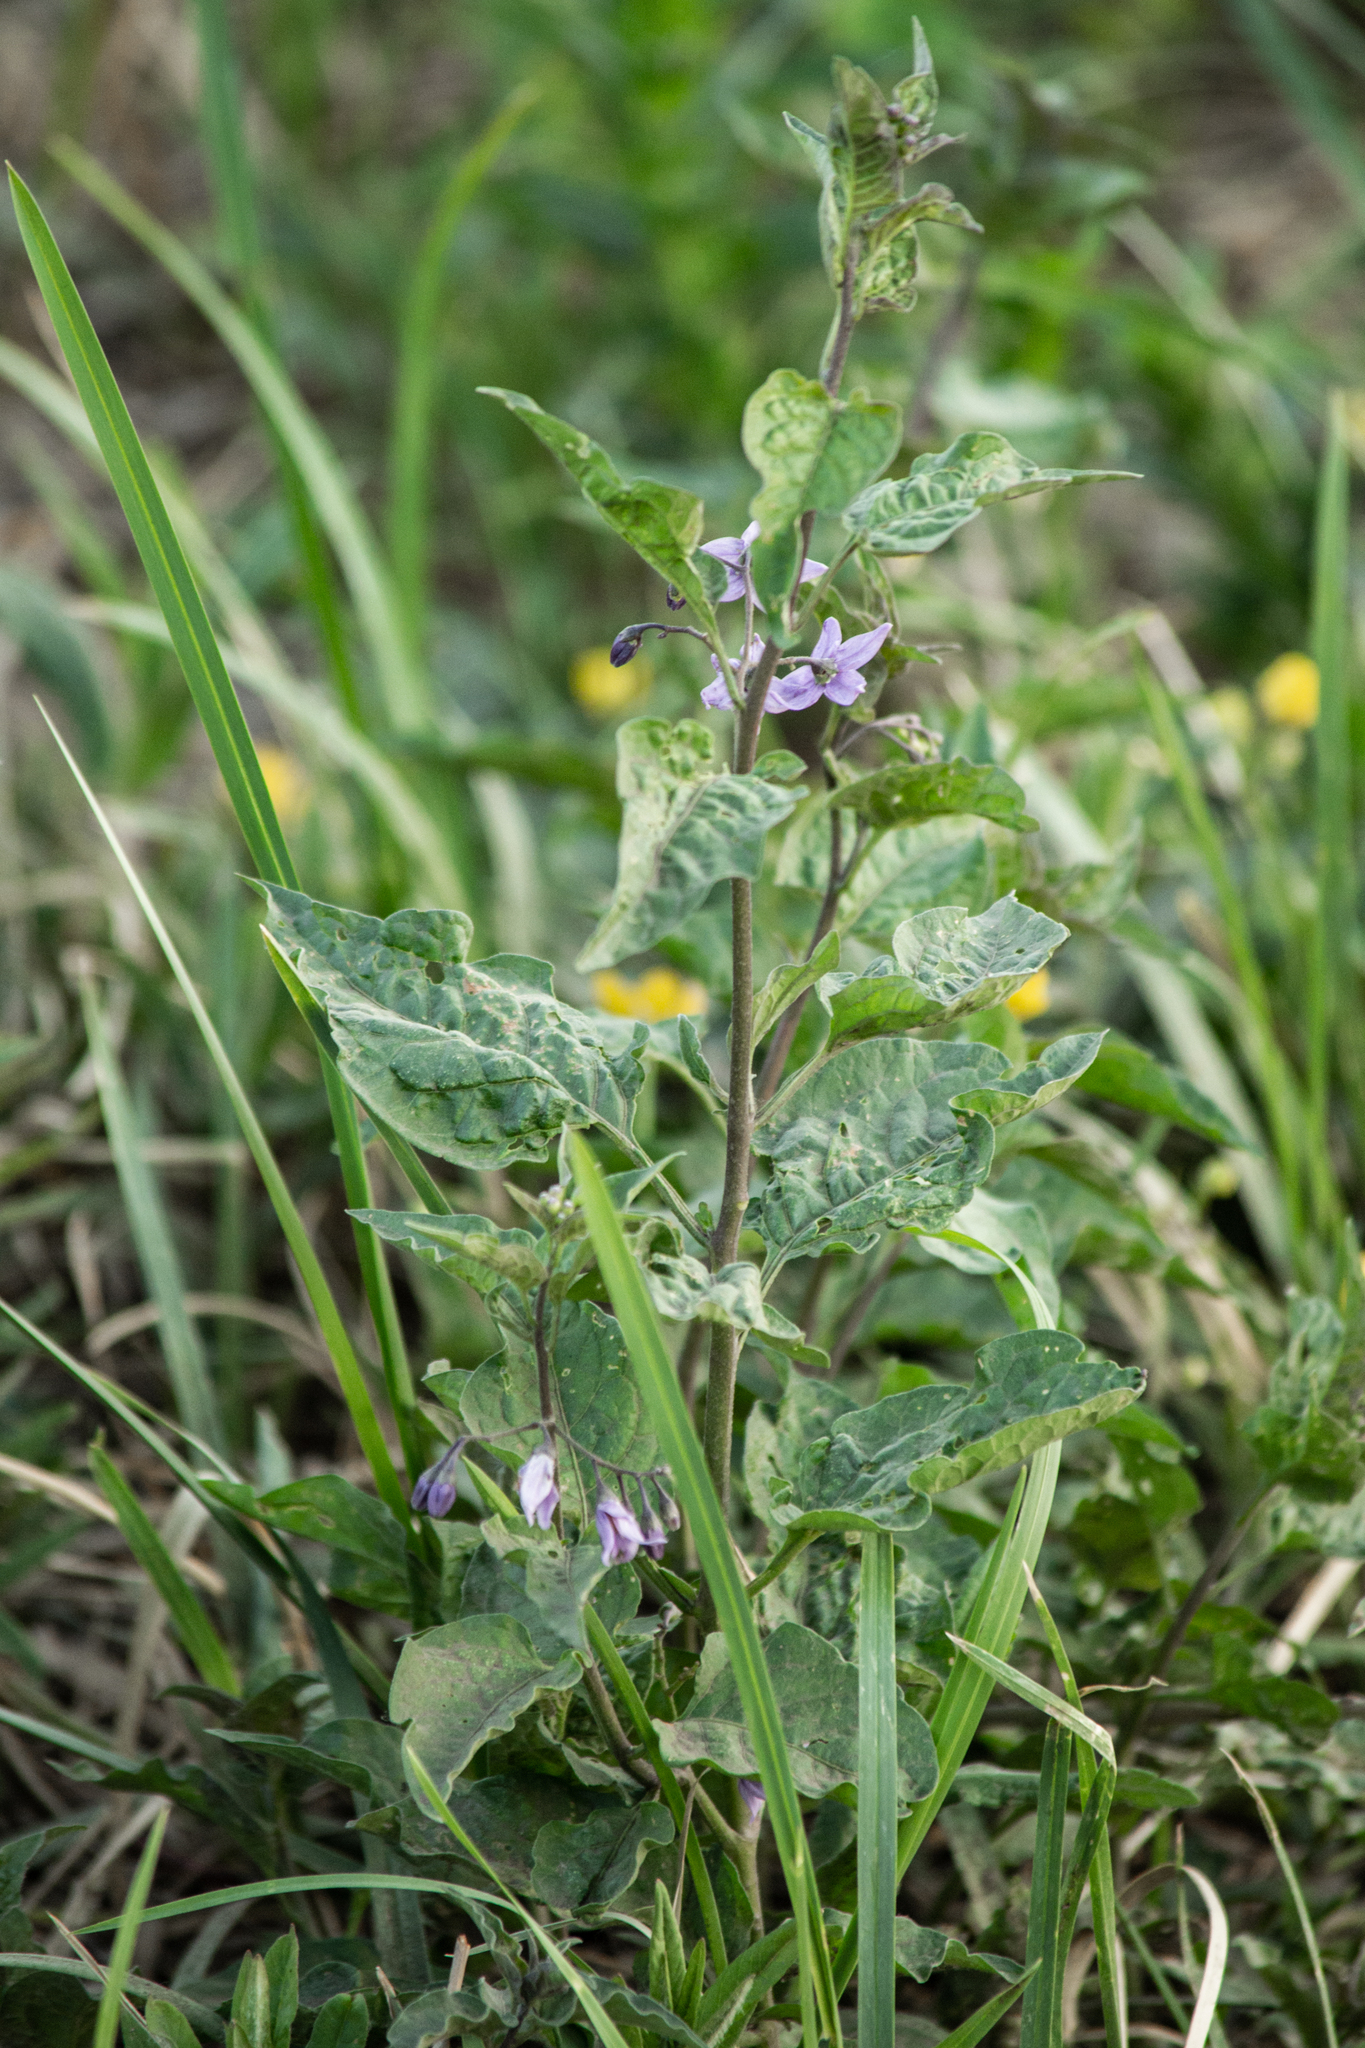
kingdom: Plantae
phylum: Tracheophyta
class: Magnoliopsida
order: Solanales
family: Solanaceae
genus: Solanum
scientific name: Solanum dulcamara
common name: Climbing nightshade
